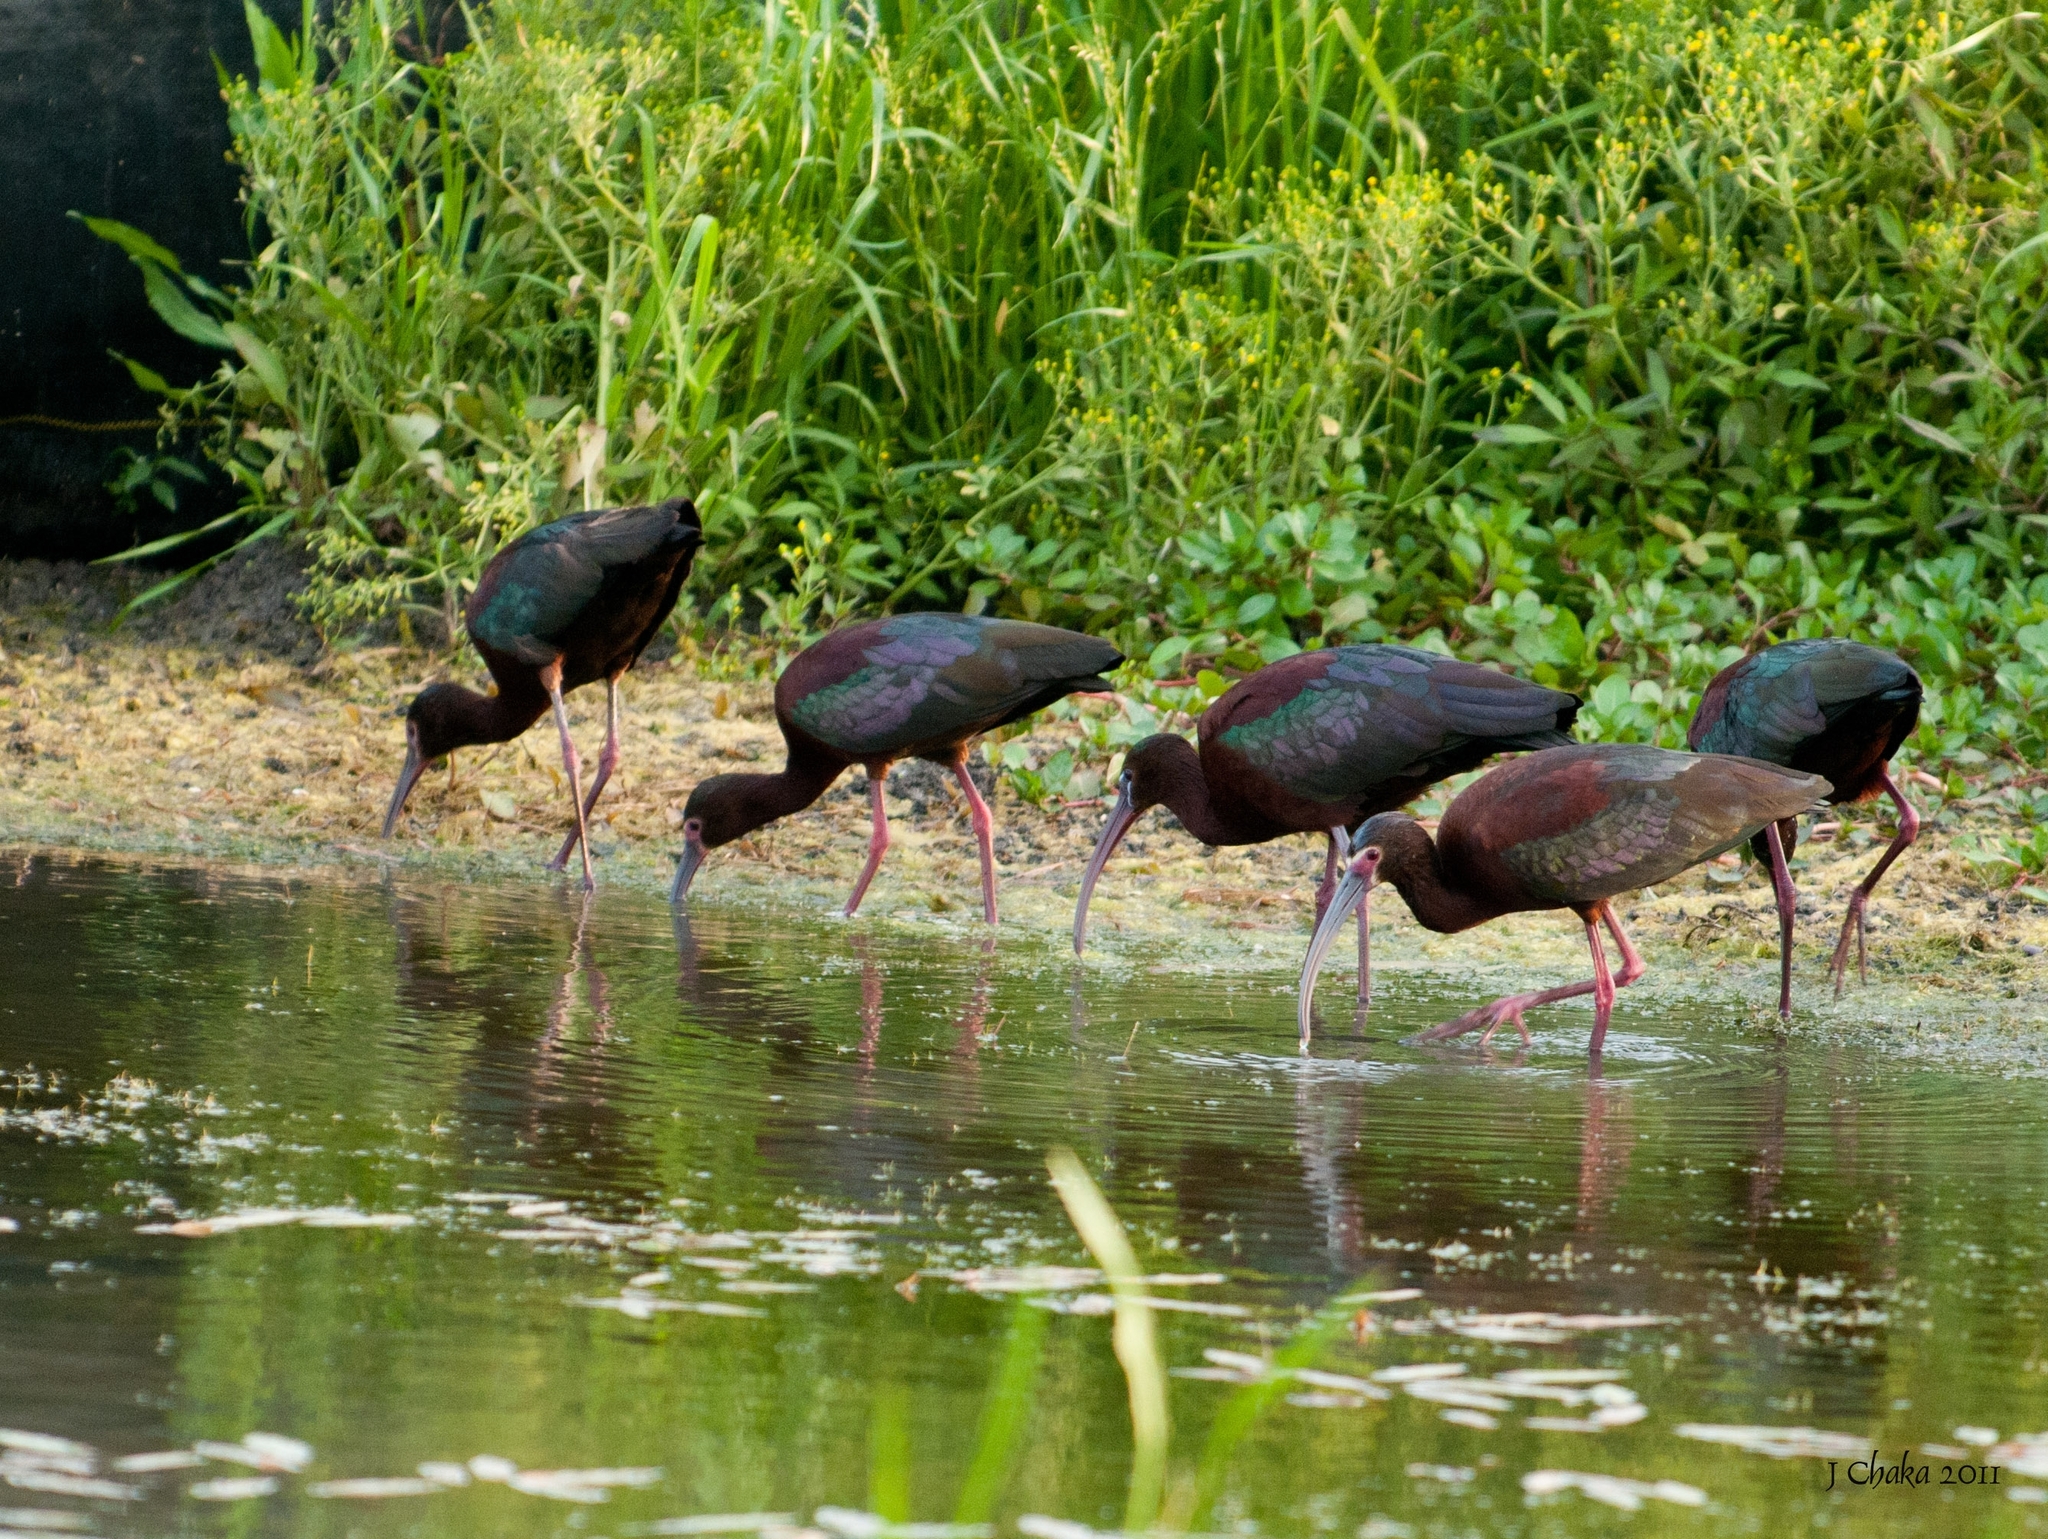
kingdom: Animalia
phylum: Chordata
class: Aves
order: Pelecaniformes
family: Threskiornithidae
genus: Plegadis
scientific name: Plegadis falcinellus
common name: Glossy ibis
